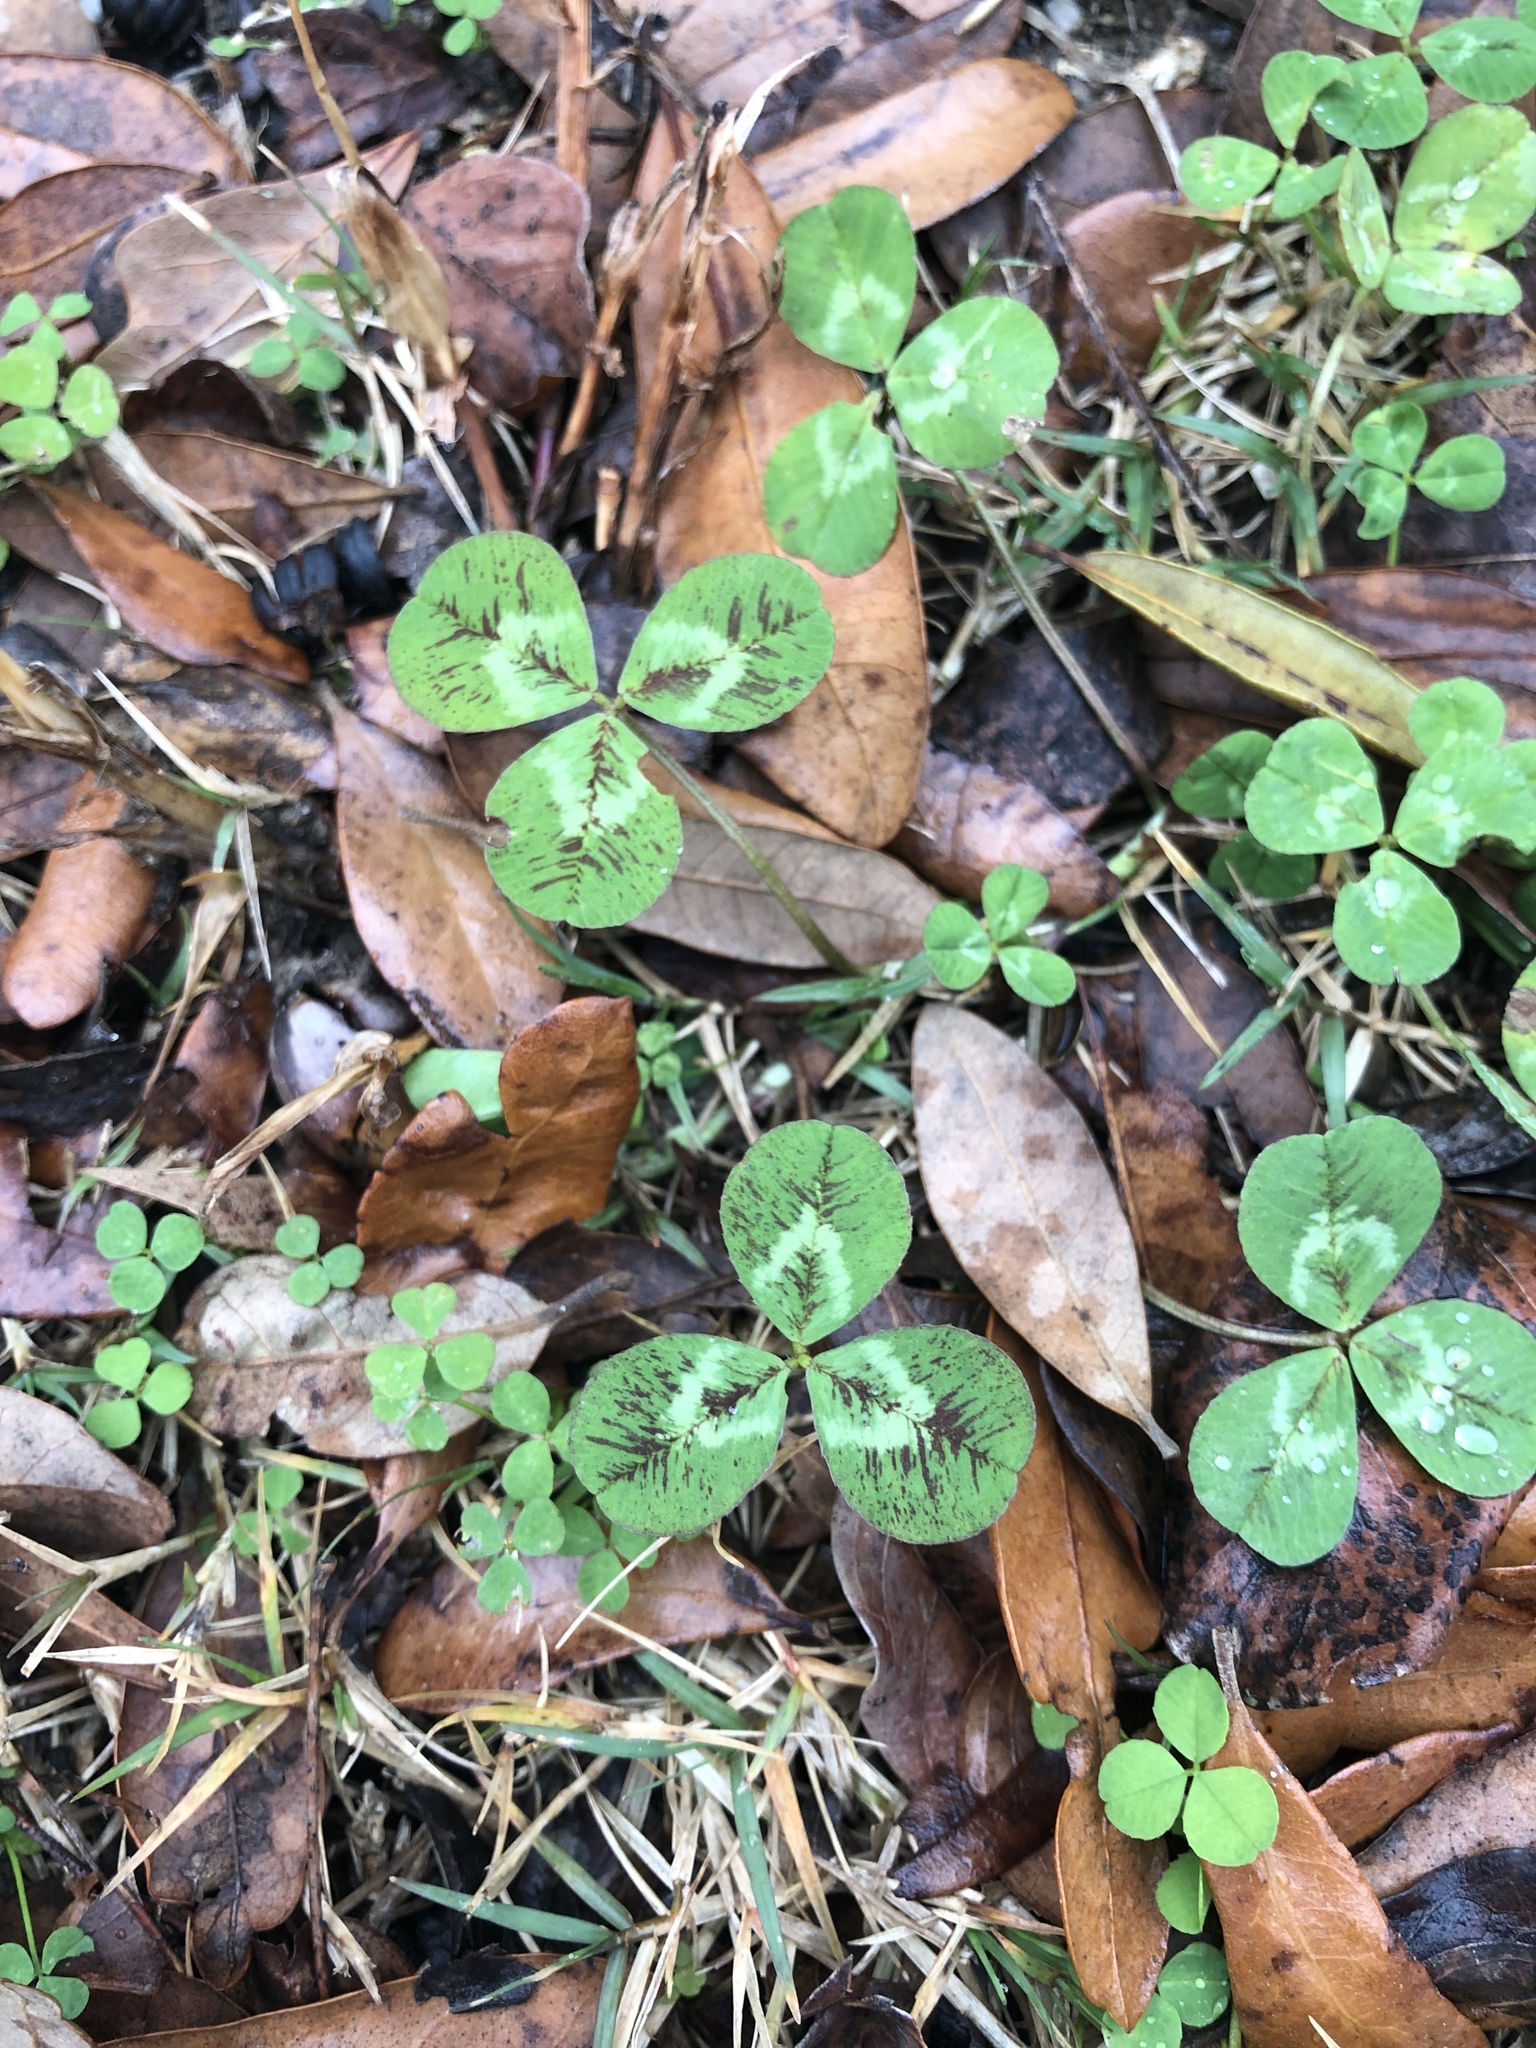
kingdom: Plantae
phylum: Tracheophyta
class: Magnoliopsida
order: Fabales
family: Fabaceae
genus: Trifolium
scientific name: Trifolium repens
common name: White clover
